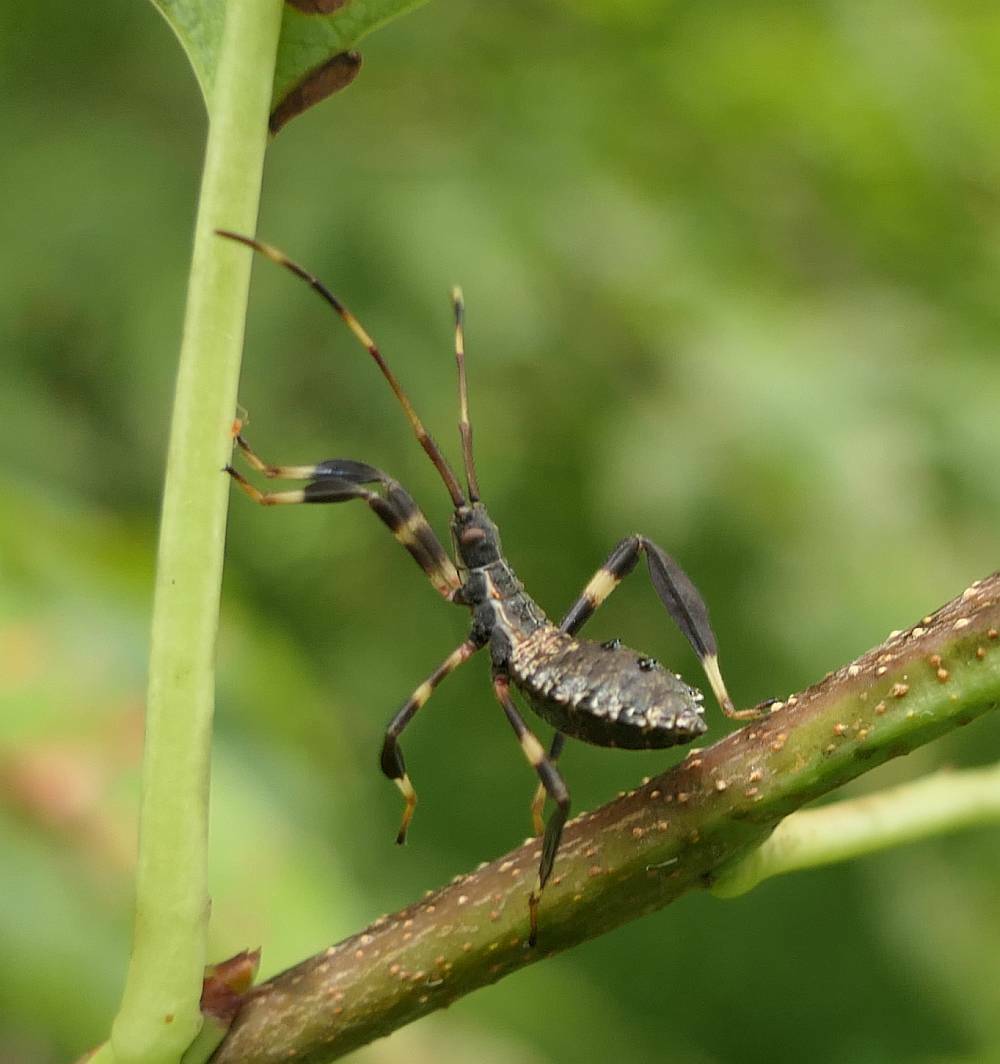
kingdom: Animalia
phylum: Arthropoda
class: Insecta
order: Hemiptera
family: Coreidae
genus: Acanthocephala
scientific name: Acanthocephala terminalis
